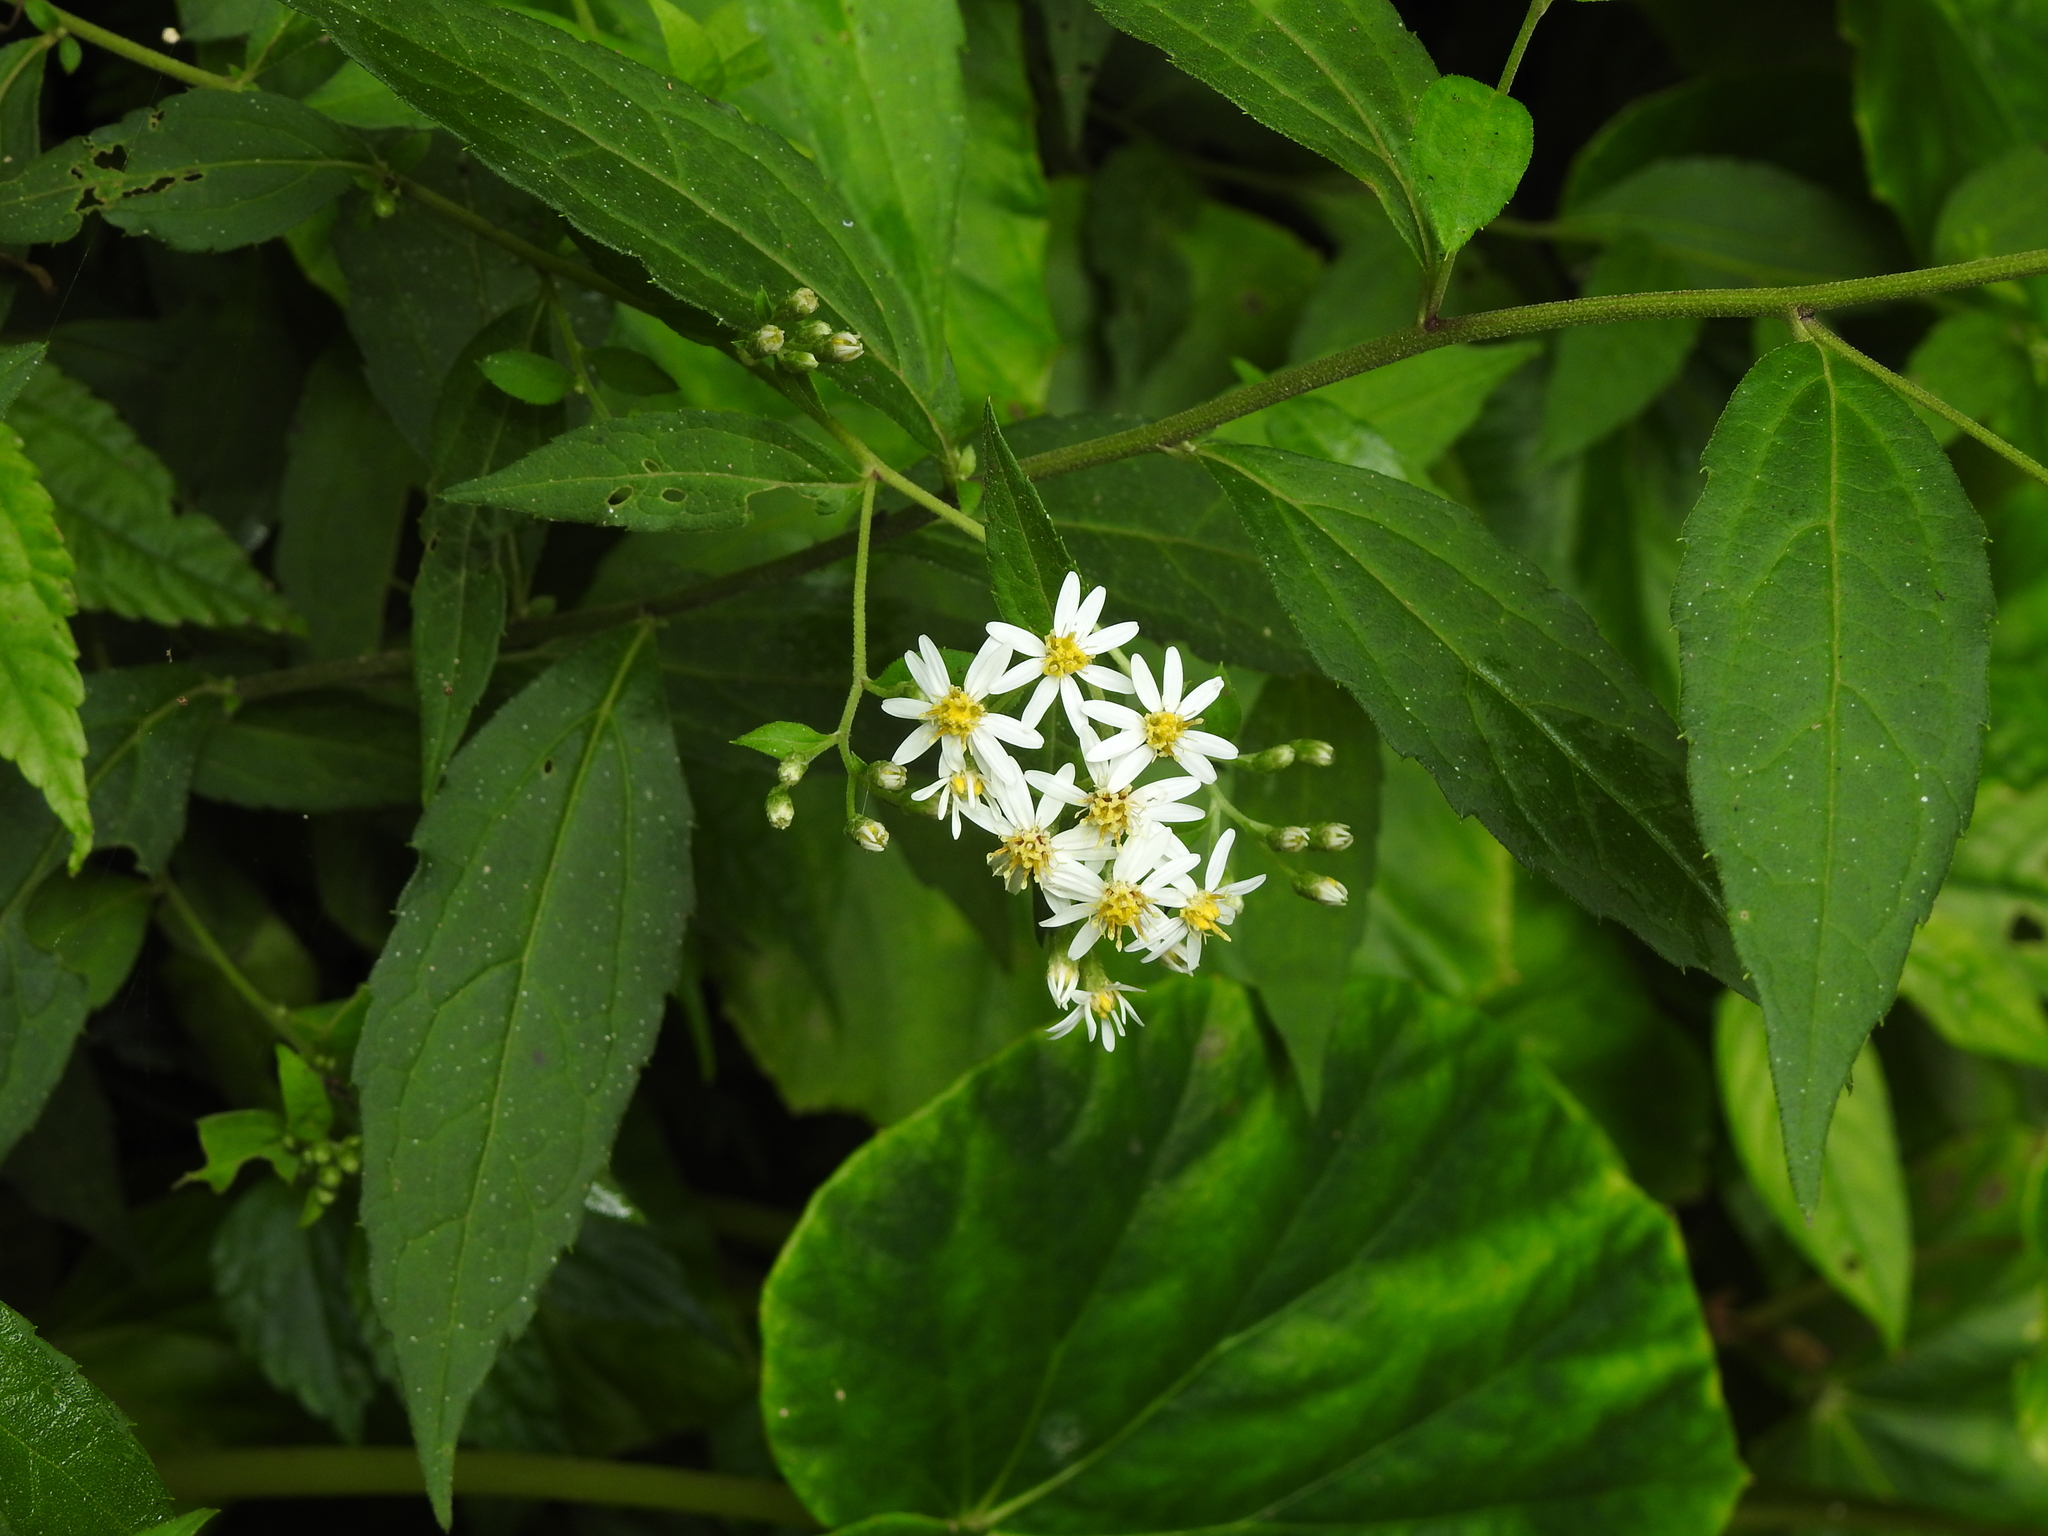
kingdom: Plantae
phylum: Tracheophyta
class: Magnoliopsida
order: Asterales
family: Asteraceae
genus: Aster
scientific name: Aster ageratoides
